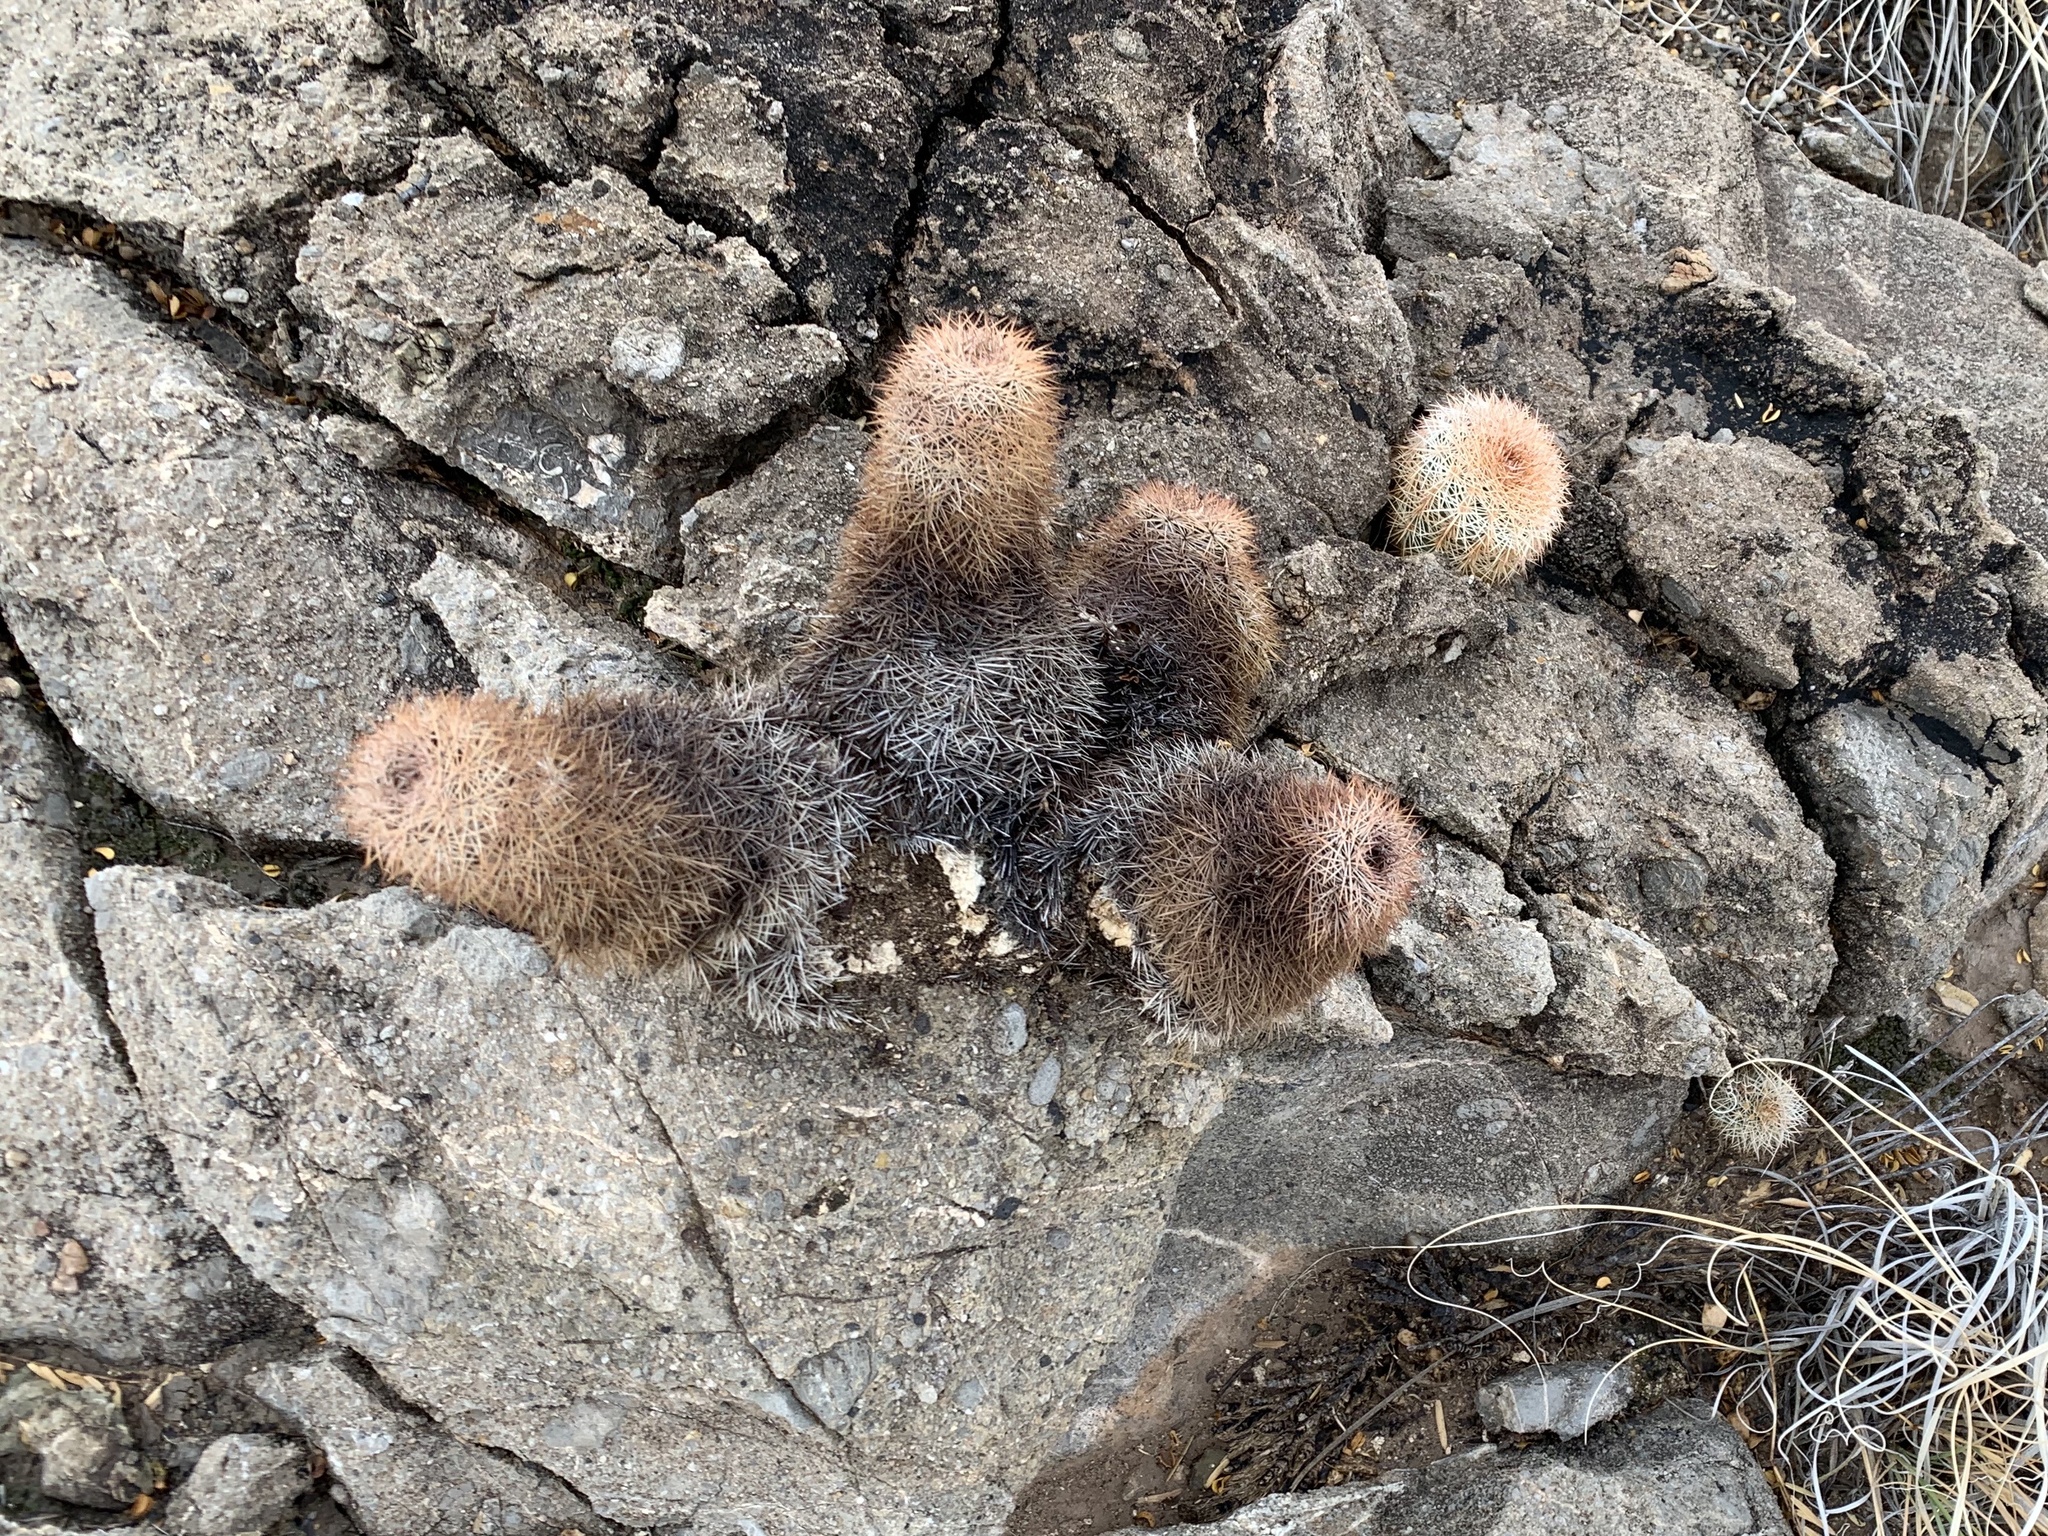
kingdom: Plantae
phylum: Tracheophyta
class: Magnoliopsida
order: Caryophyllales
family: Cactaceae
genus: Echinocereus
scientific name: Echinocereus dasyacanthus
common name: Spiny hedgehog cactus
